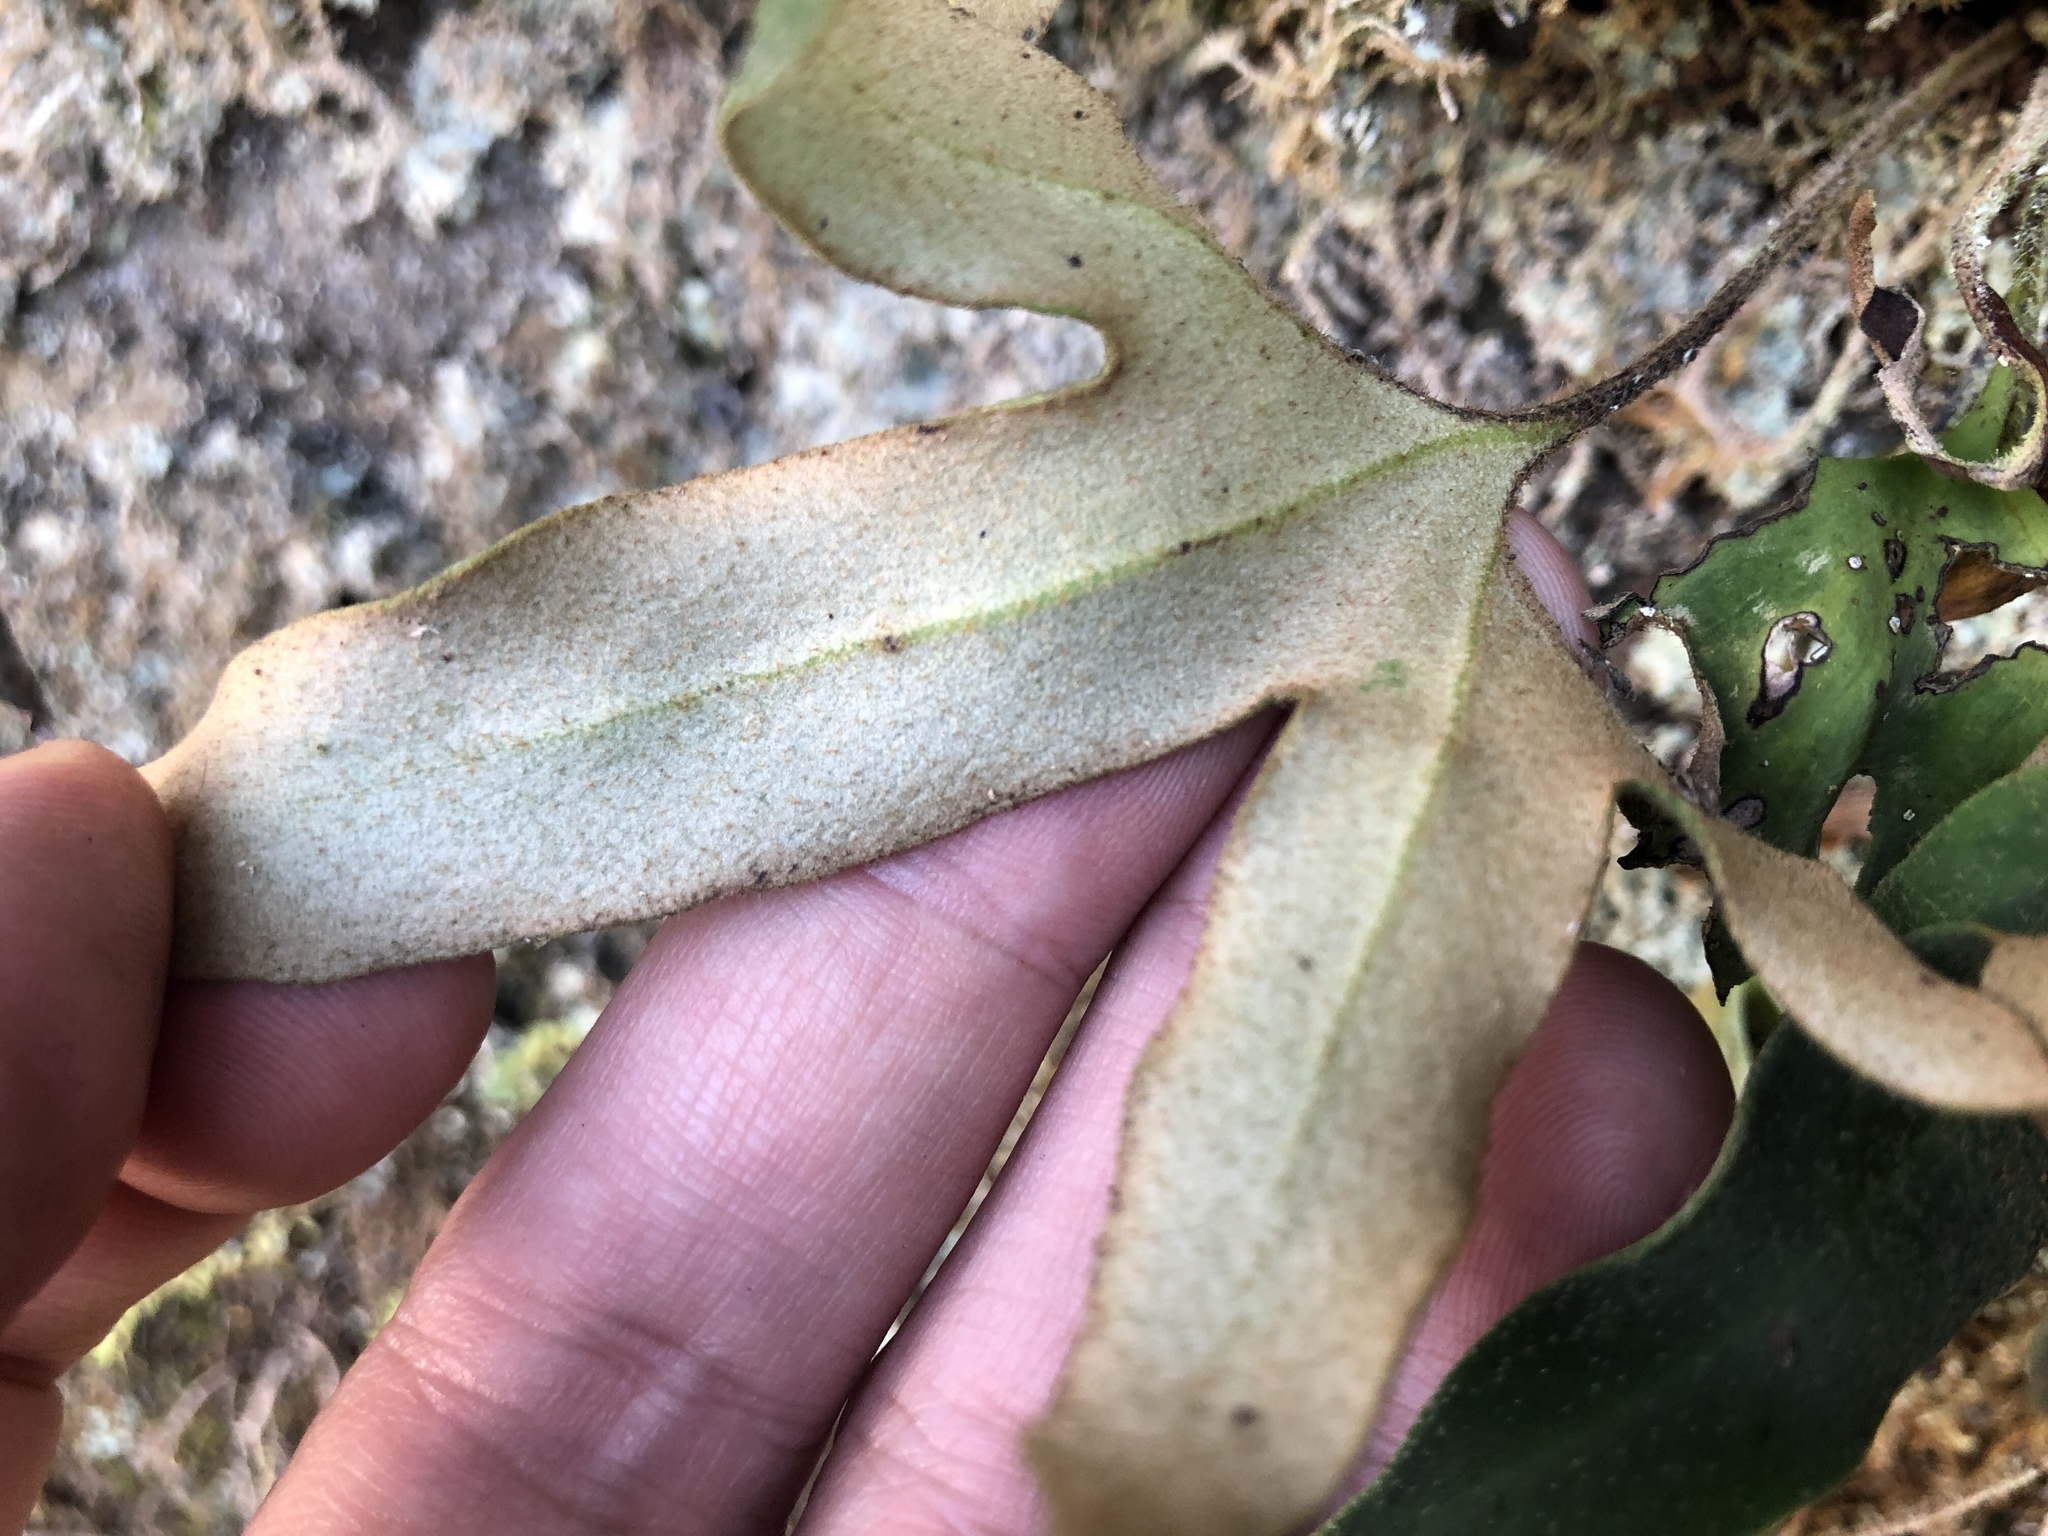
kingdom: Plantae
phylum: Tracheophyta
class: Polypodiopsida
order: Polypodiales
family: Polypodiaceae
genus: Pyrrosia
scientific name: Pyrrosia polydactyla
